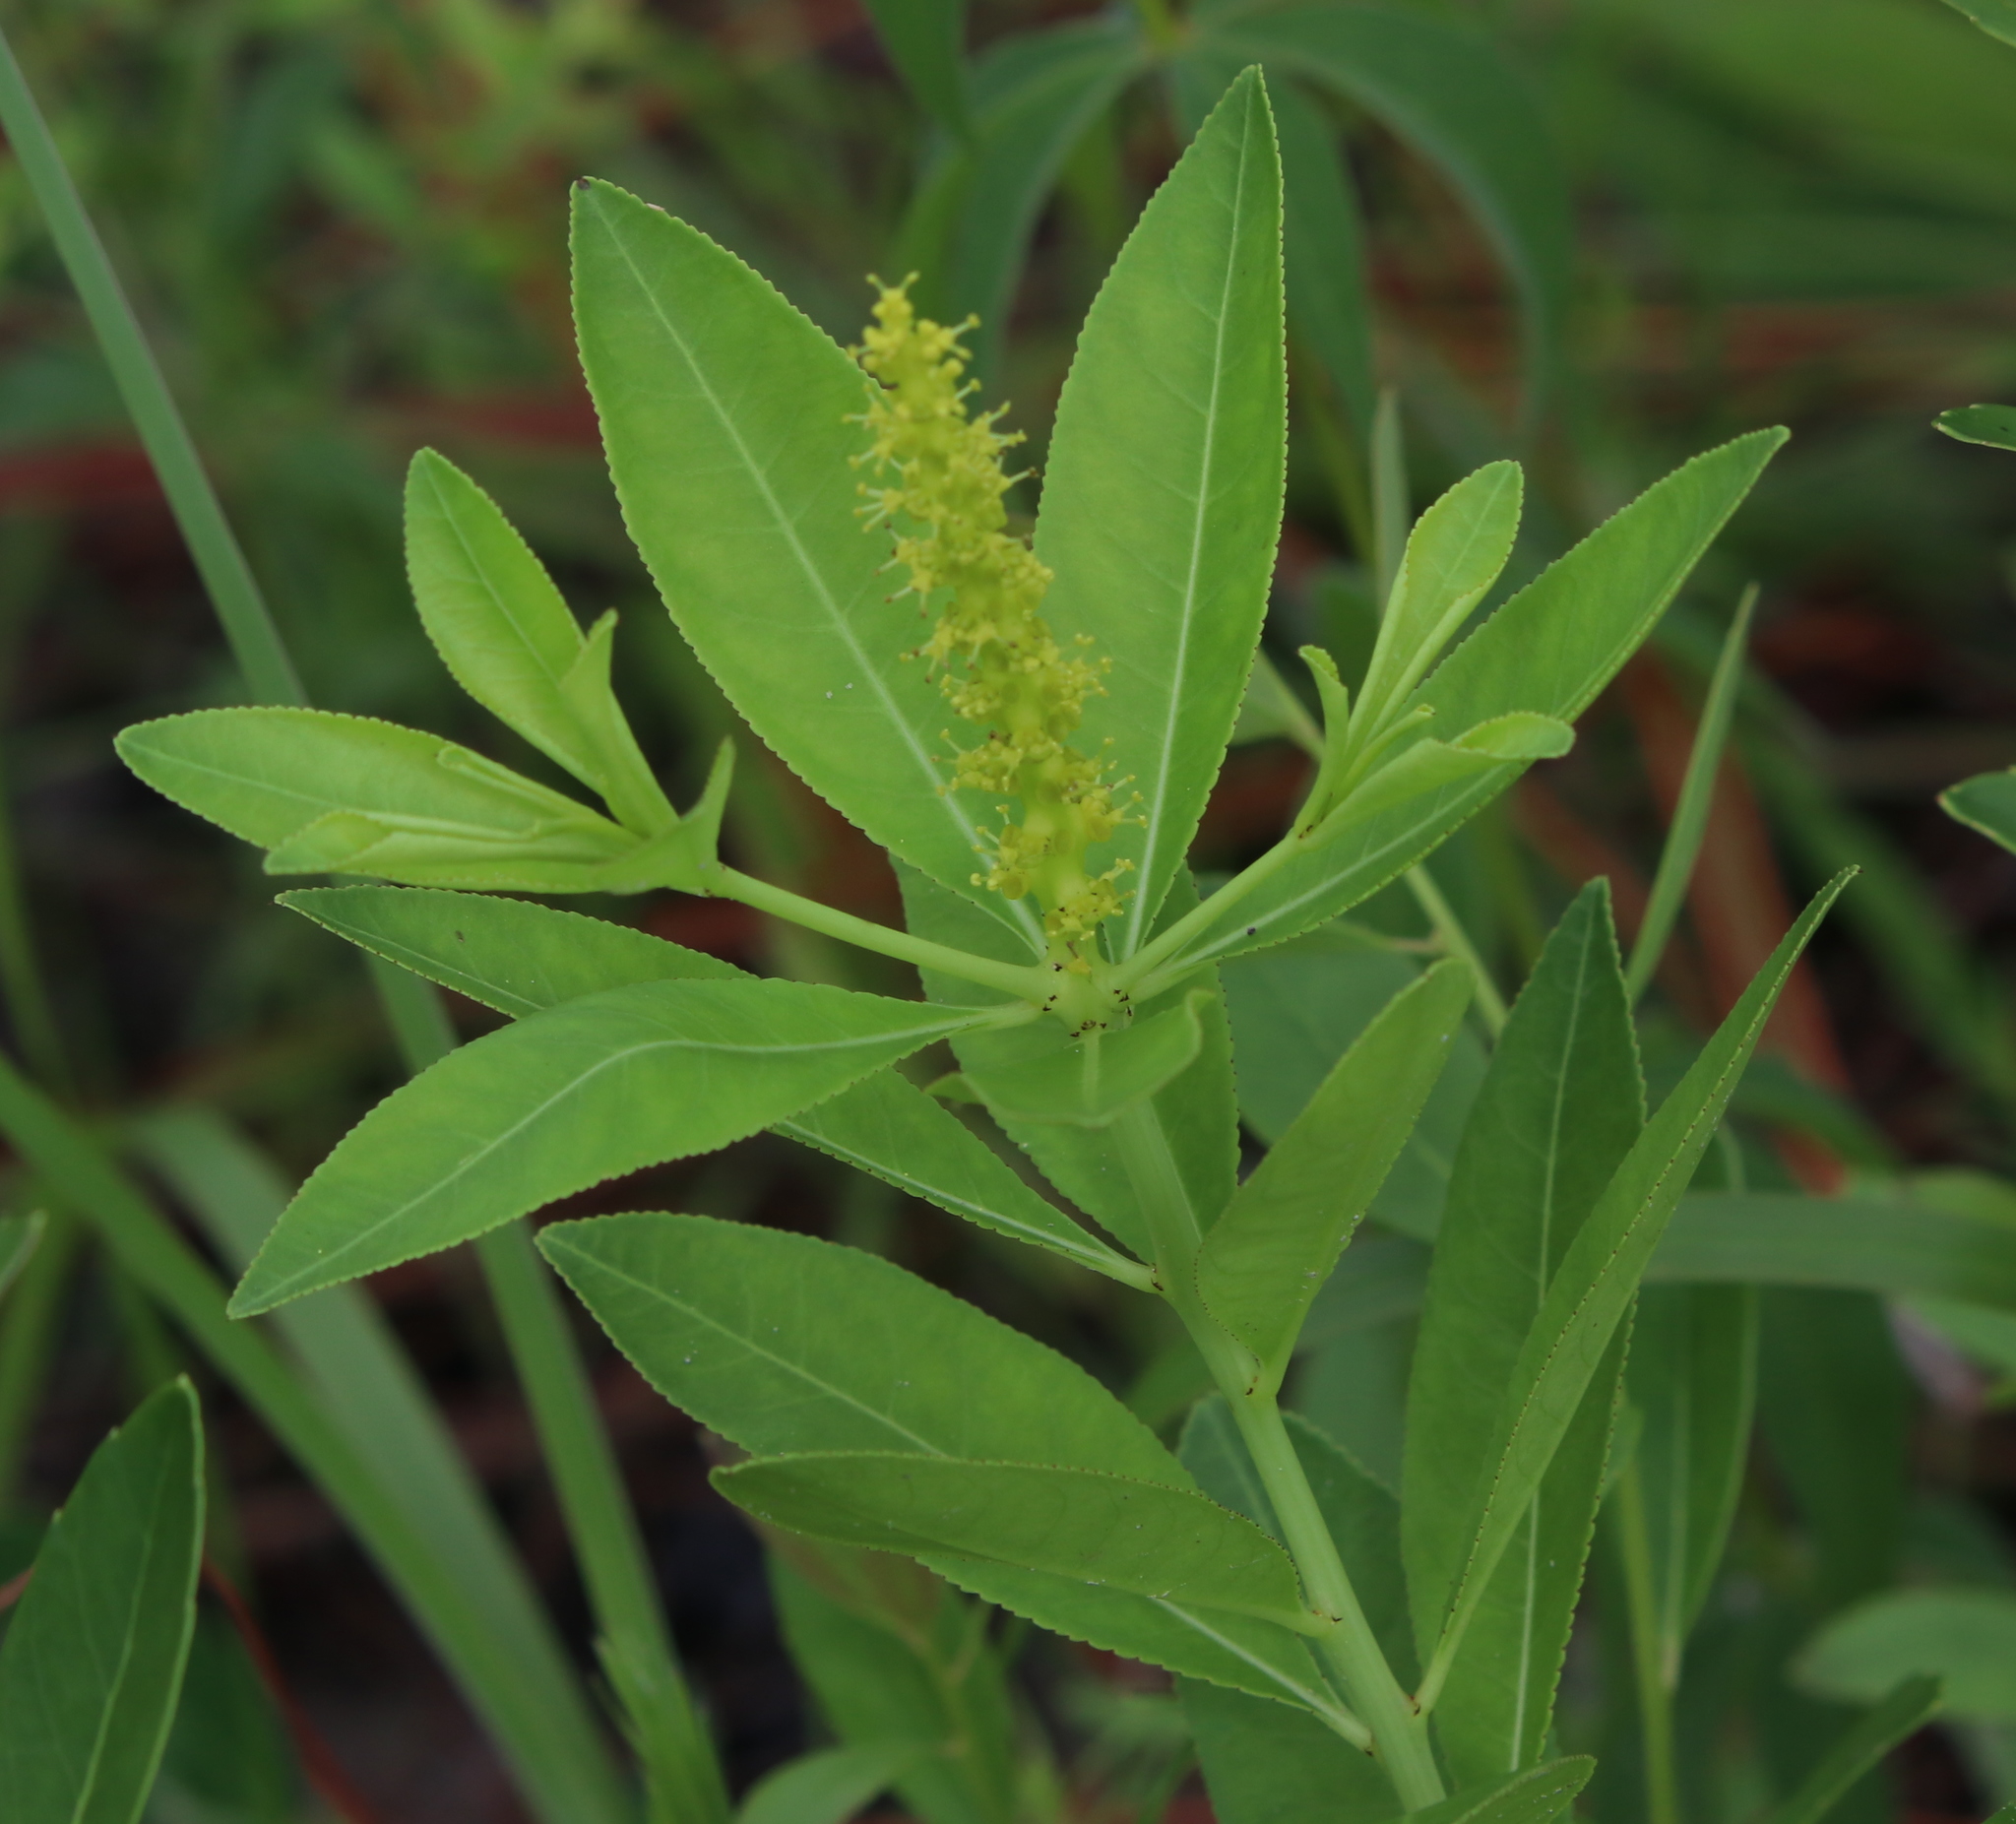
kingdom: Plantae
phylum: Tracheophyta
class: Magnoliopsida
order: Malpighiales
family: Euphorbiaceae
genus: Stillingia
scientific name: Stillingia sylvatica
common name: Queen's-delight
